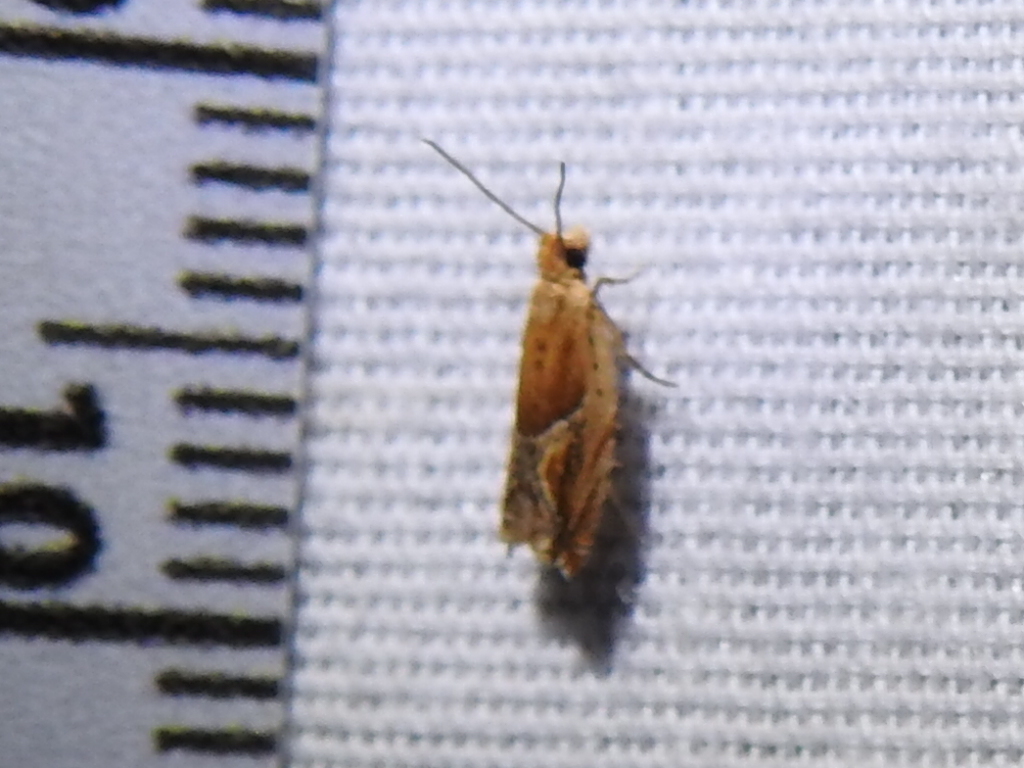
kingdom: Animalia
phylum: Arthropoda
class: Insecta
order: Lepidoptera
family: Tortricidae
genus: Ancylis
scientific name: Ancylis comptana
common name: Little roller
